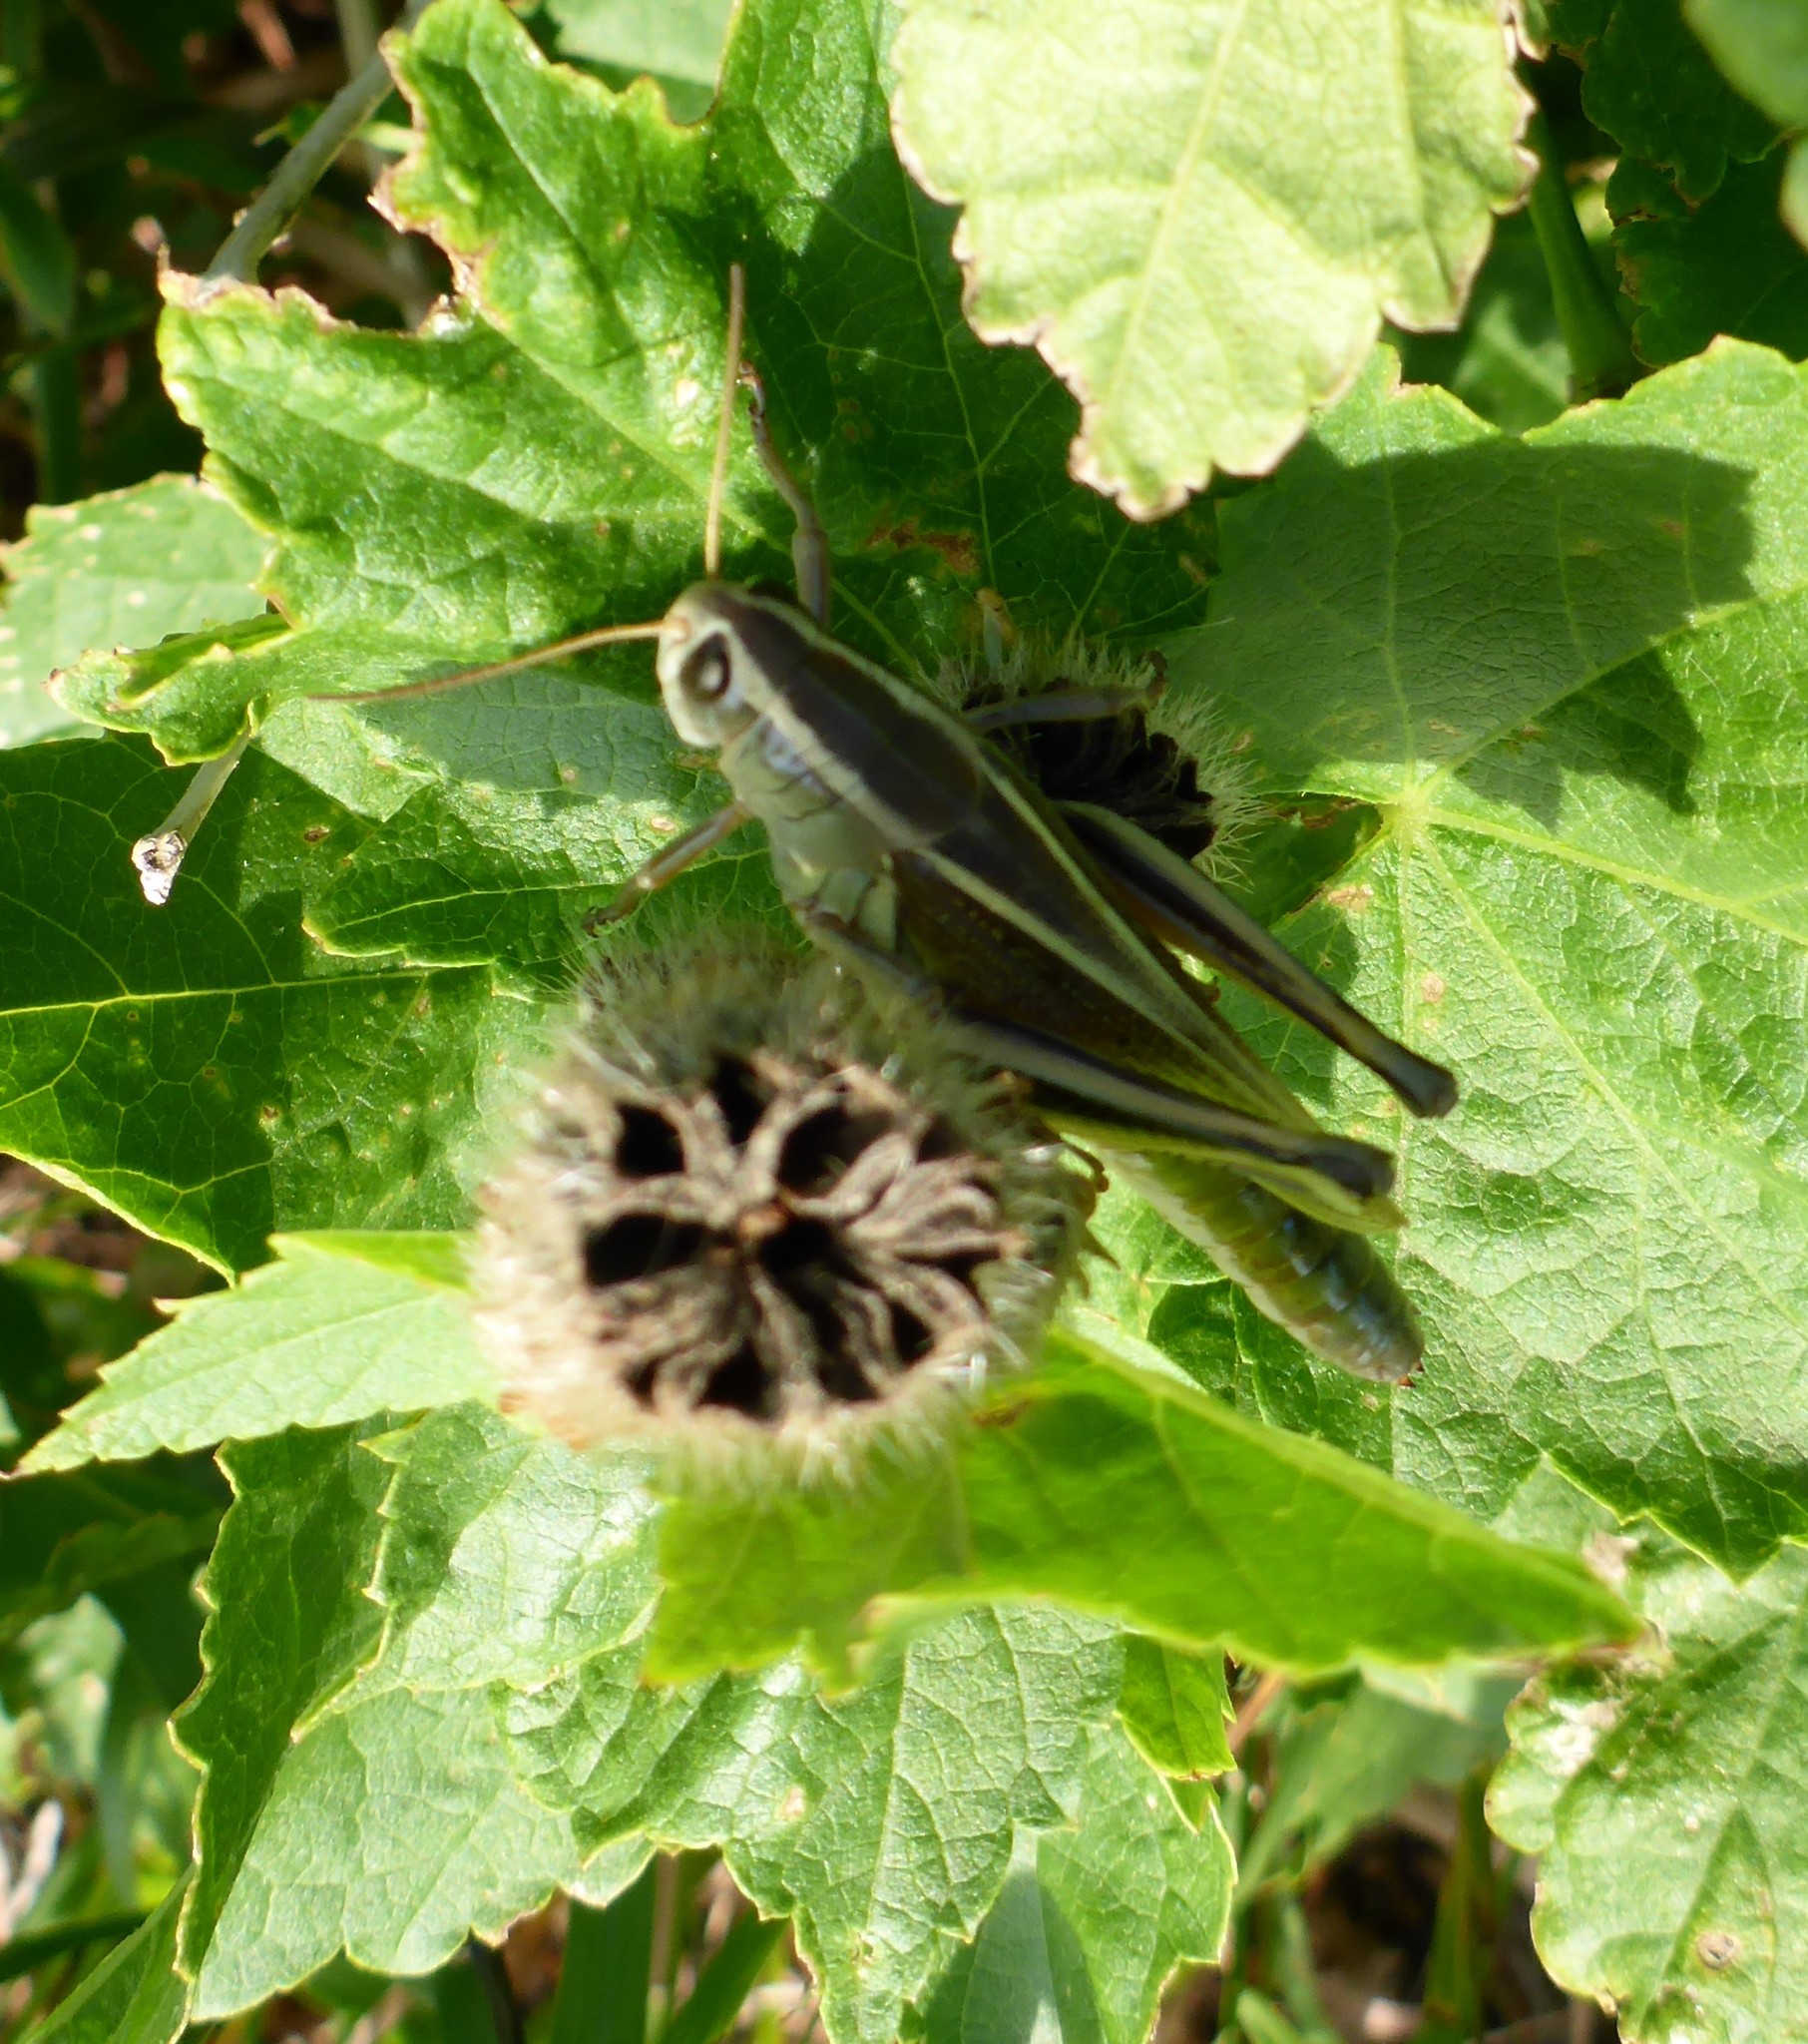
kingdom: Animalia
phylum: Arthropoda
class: Insecta
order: Orthoptera
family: Acrididae
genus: Melanoplus
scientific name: Melanoplus bivittatus
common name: Two-striped grasshopper
